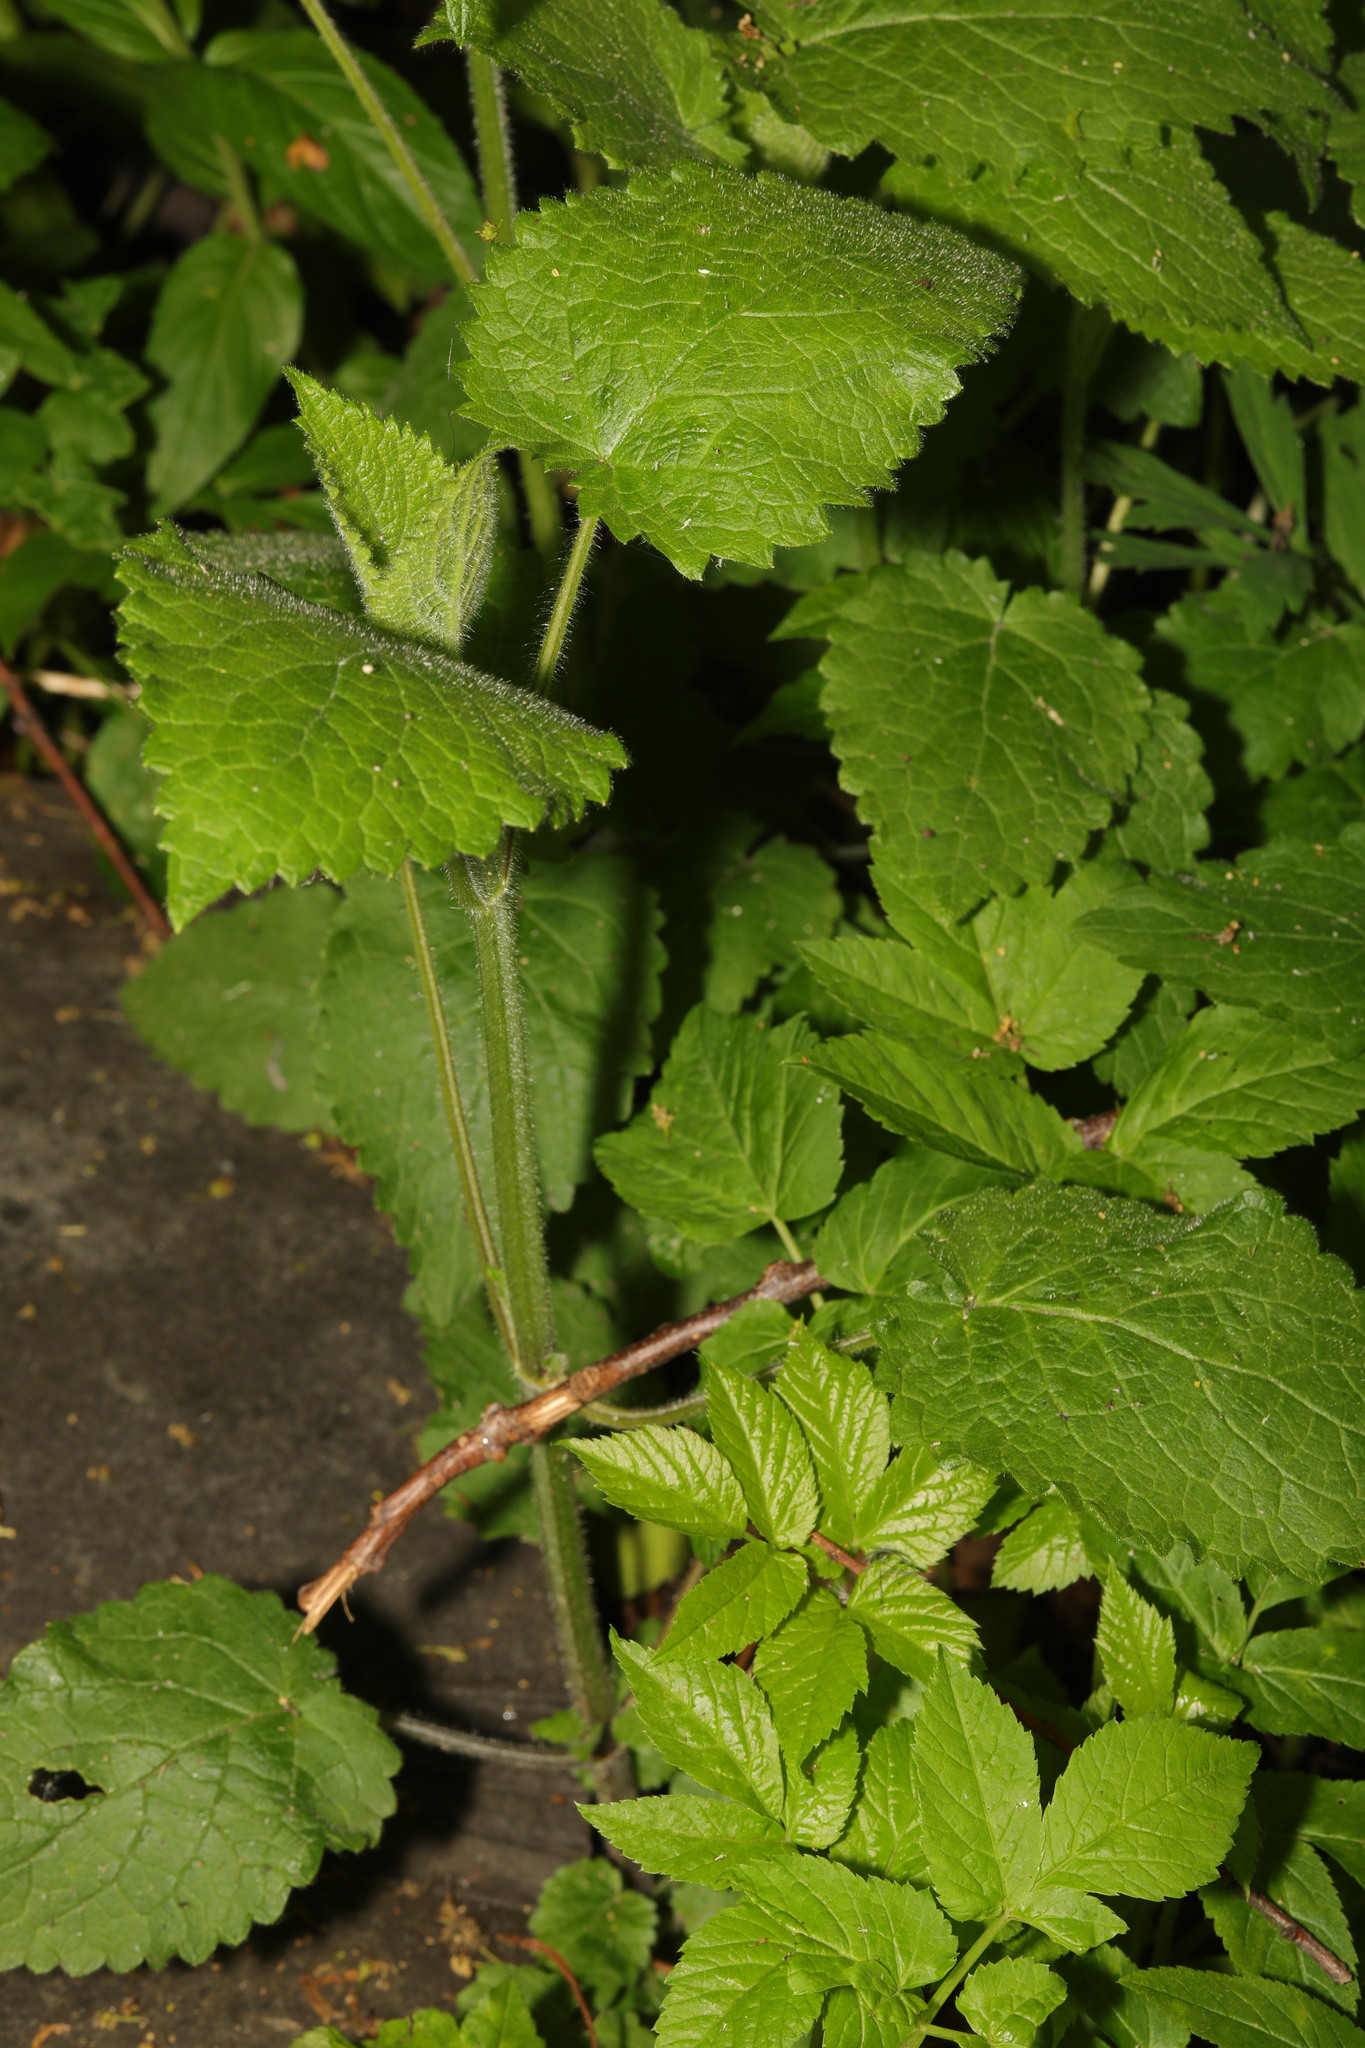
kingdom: Plantae
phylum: Tracheophyta
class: Magnoliopsida
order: Lamiales
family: Lamiaceae
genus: Stachys
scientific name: Stachys sylvatica
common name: Hedge woundwort
